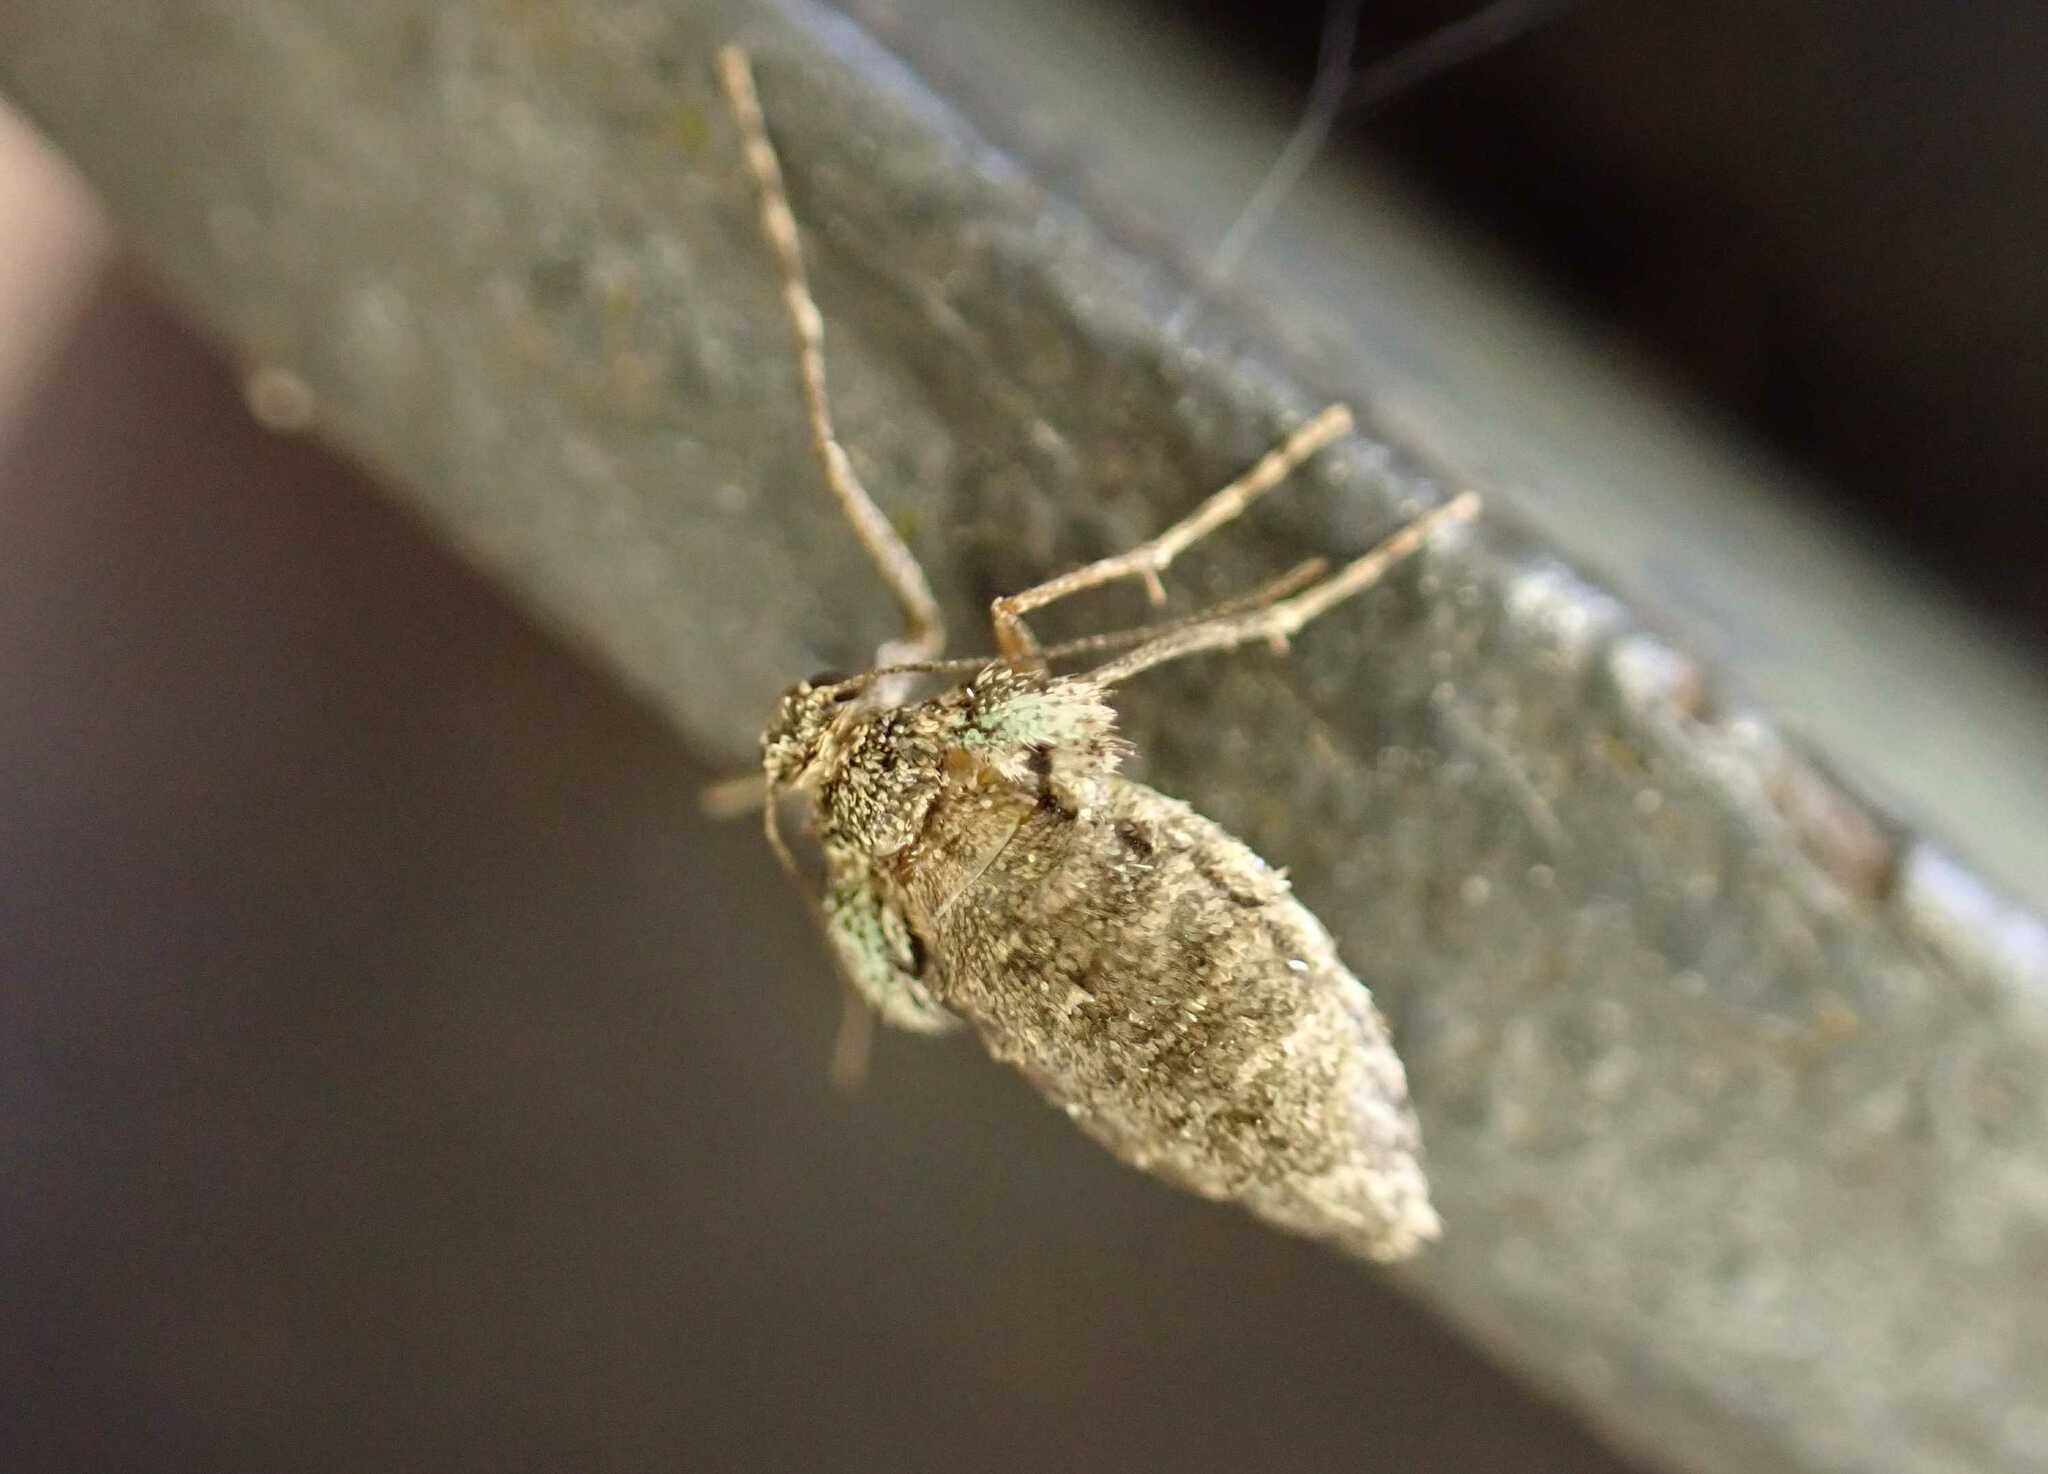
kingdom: Animalia
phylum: Arthropoda
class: Insecta
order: Lepidoptera
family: Geometridae
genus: Operophtera
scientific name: Operophtera brumata
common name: Winter moth
